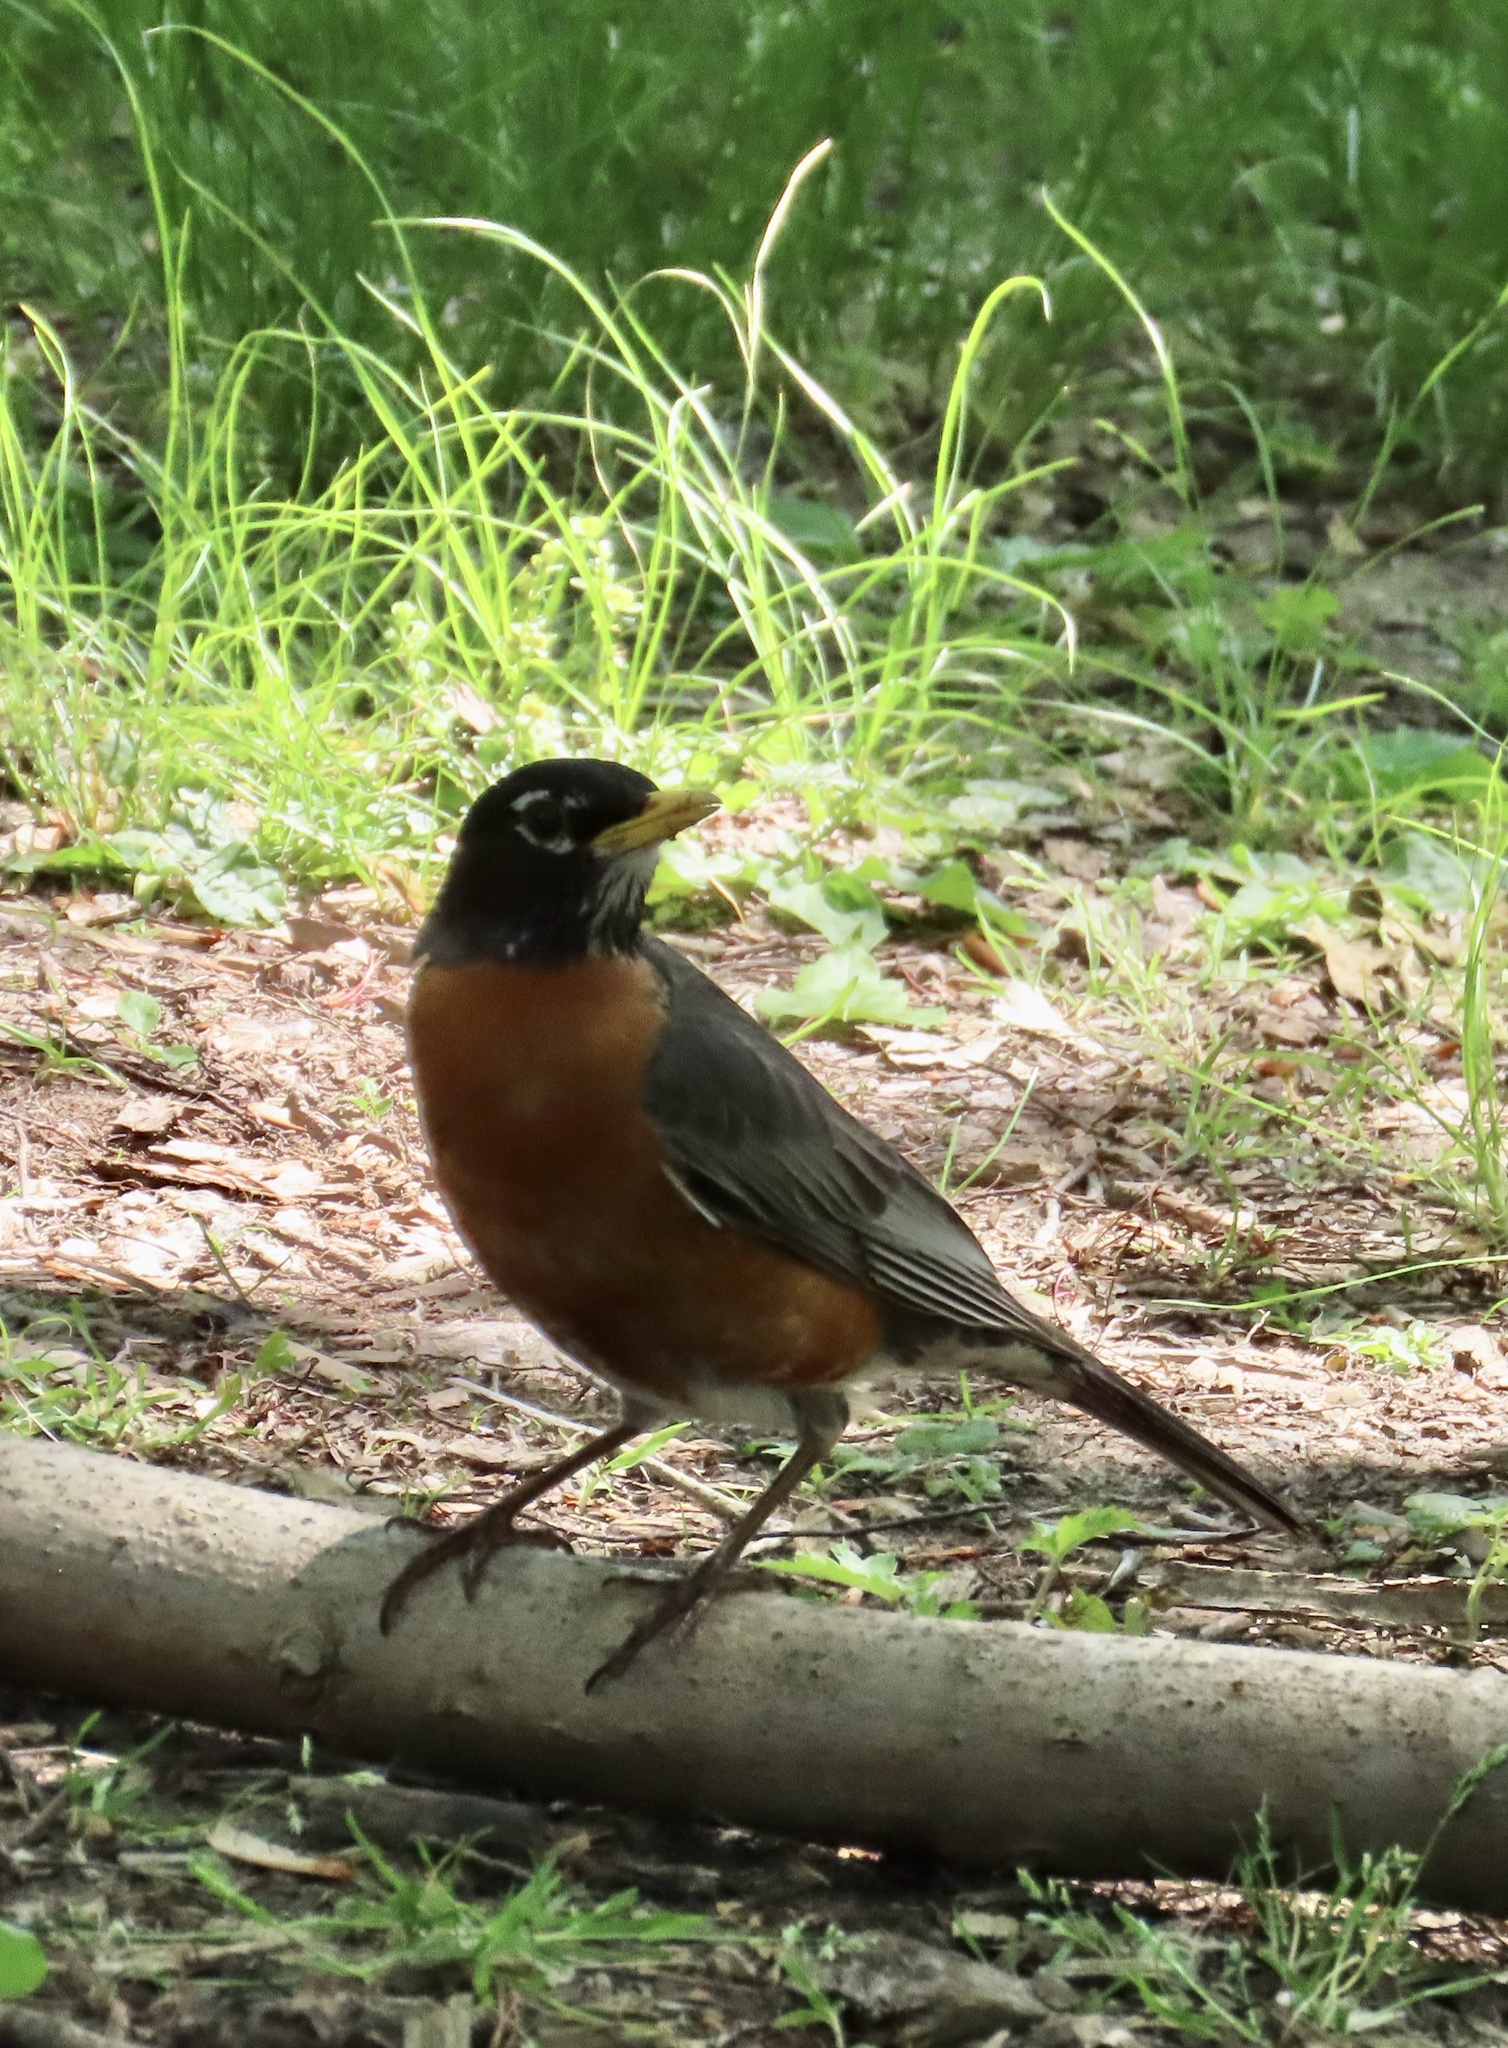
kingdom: Animalia
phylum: Chordata
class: Aves
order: Passeriformes
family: Turdidae
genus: Turdus
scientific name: Turdus migratorius
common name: American robin
